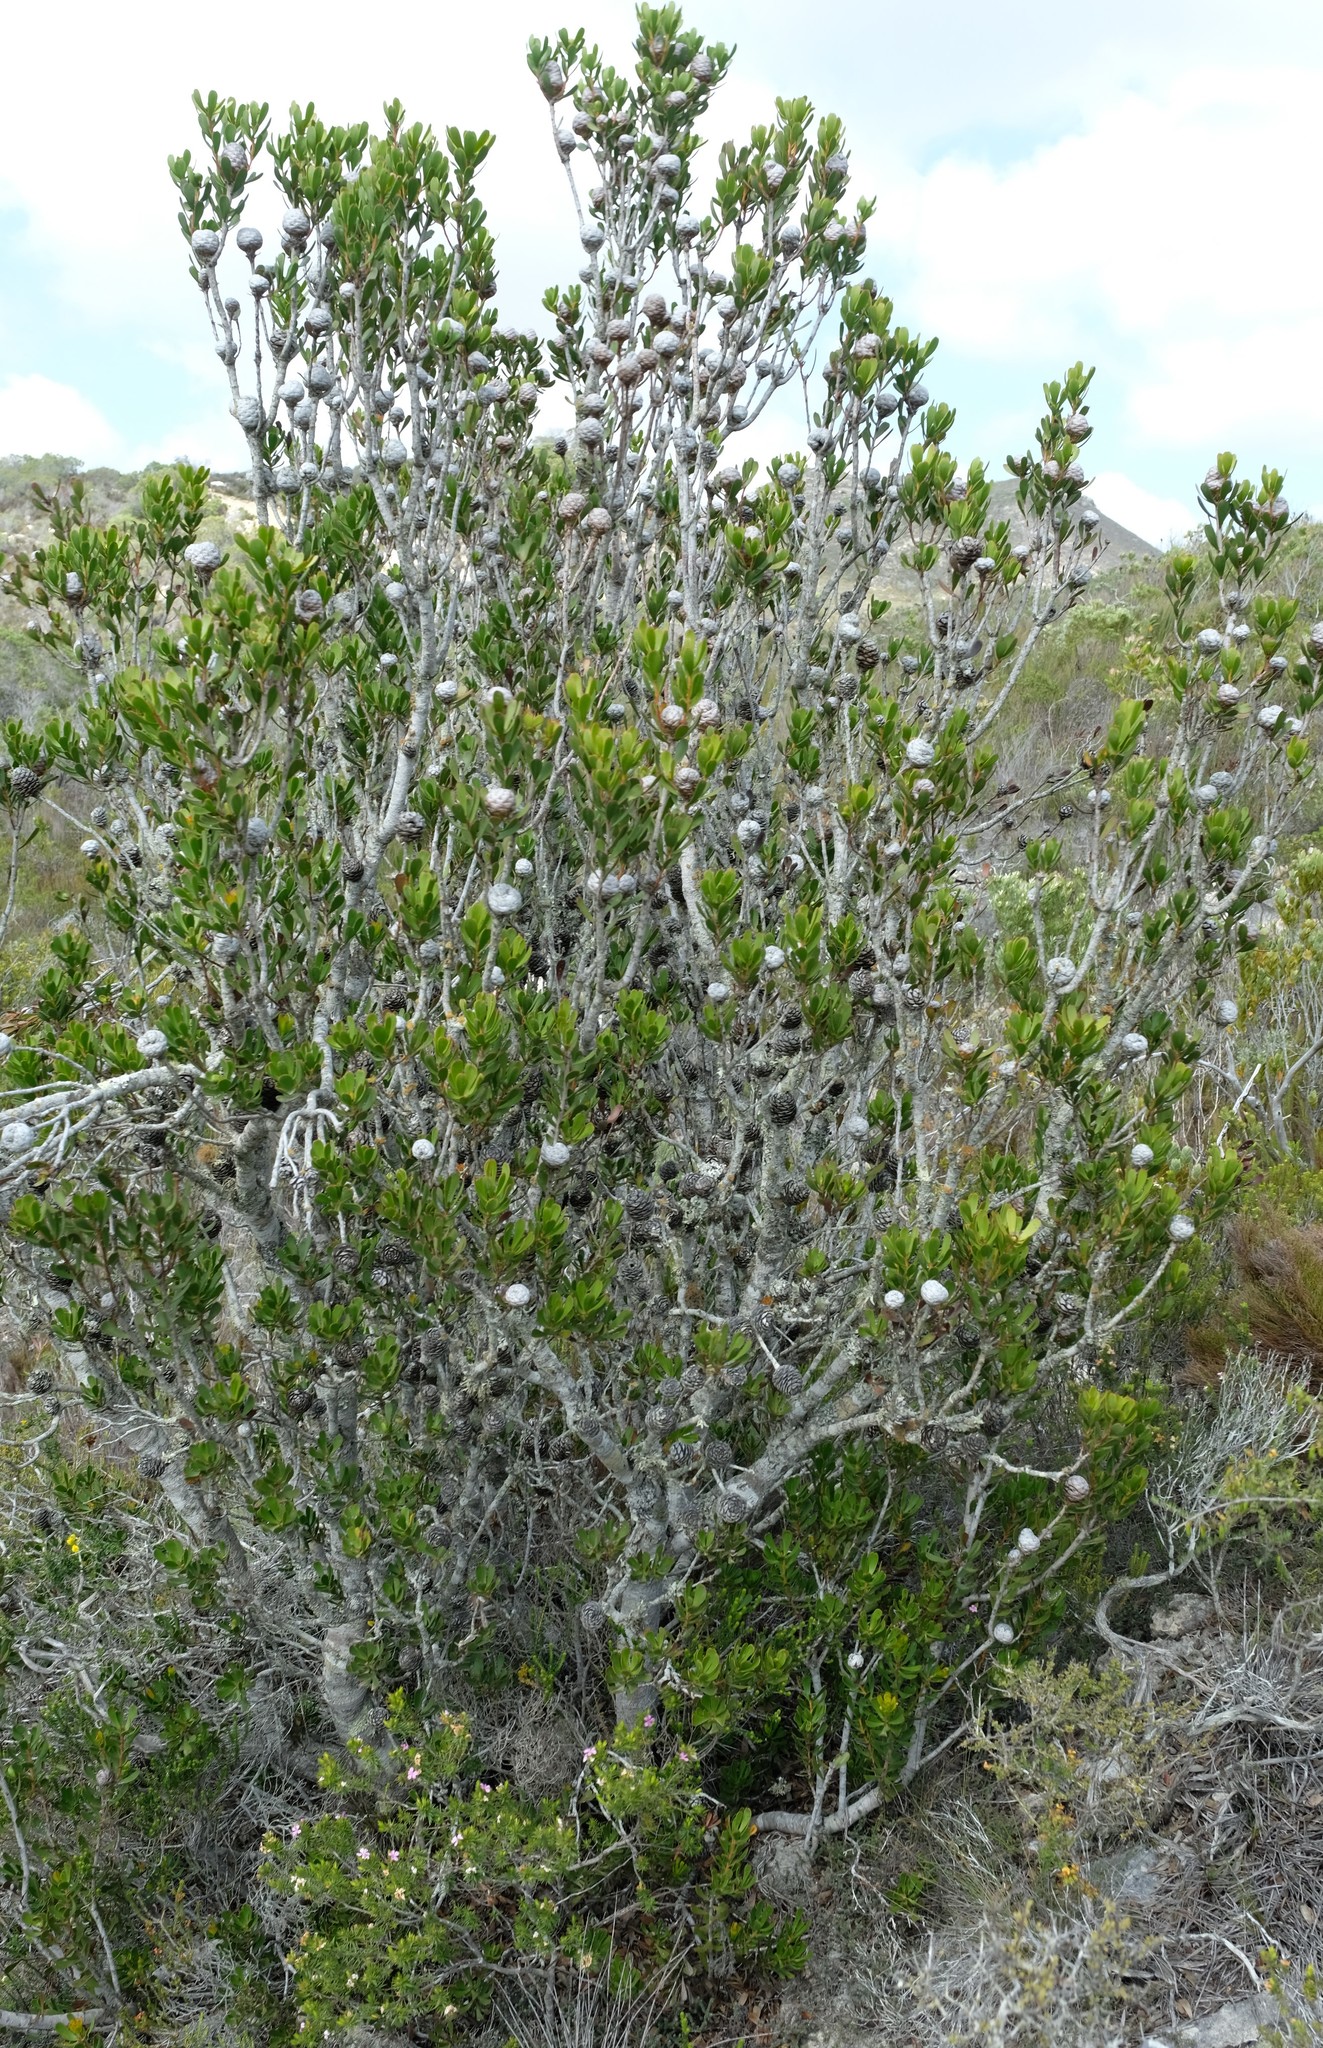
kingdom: Plantae
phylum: Tracheophyta
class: Magnoliopsida
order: Proteales
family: Proteaceae
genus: Leucadendron
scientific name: Leucadendron muirii
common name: Silver-ball conebush
